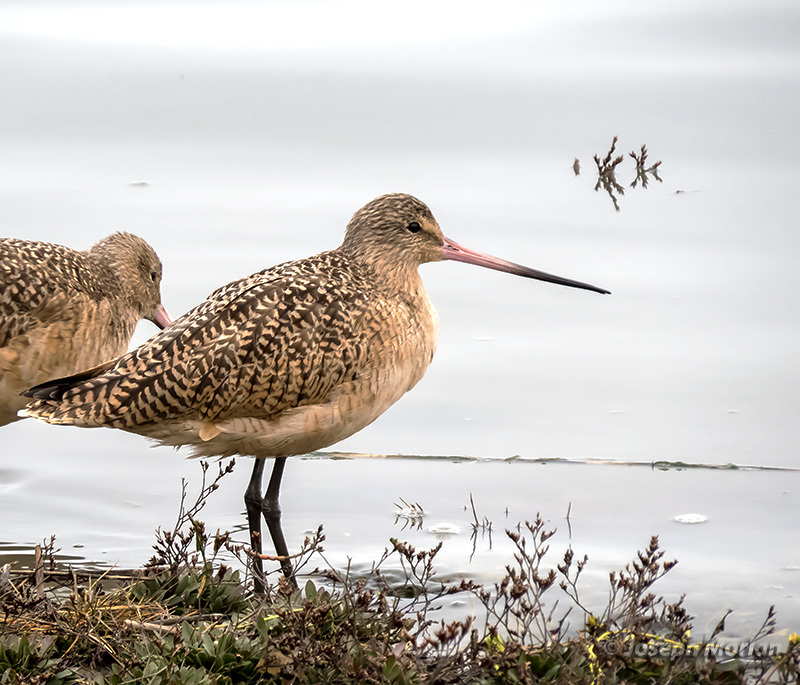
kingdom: Animalia
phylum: Chordata
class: Aves
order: Charadriiformes
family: Scolopacidae
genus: Limosa
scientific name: Limosa fedoa
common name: Marbled godwit
